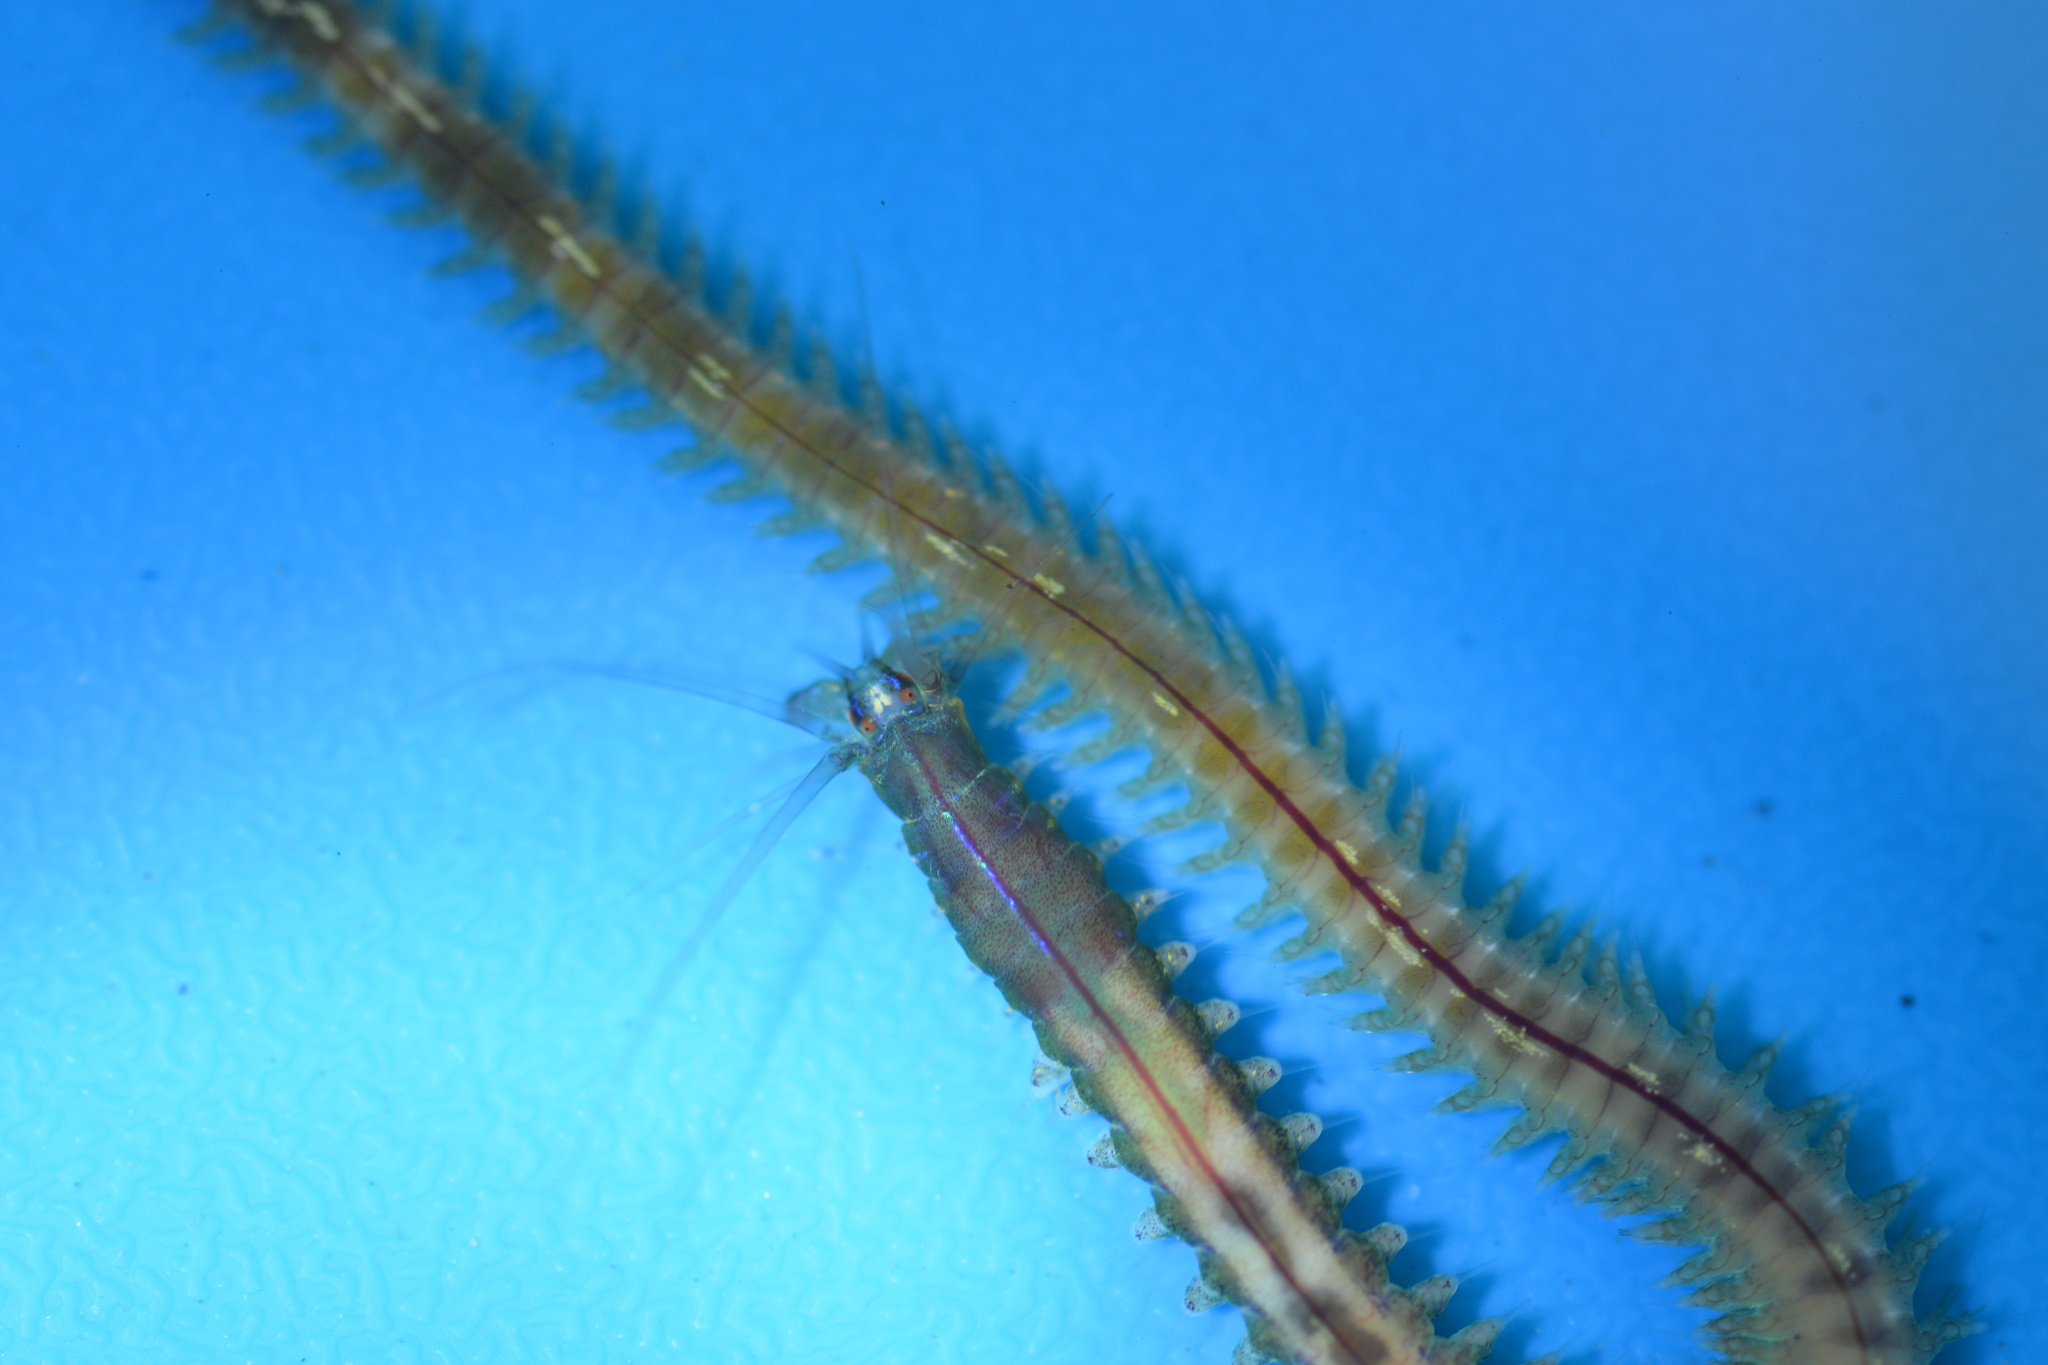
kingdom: Animalia
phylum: Annelida
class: Polychaeta
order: Phyllodocida
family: Nereididae
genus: Platynereis
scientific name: Platynereis bicanaliculata
